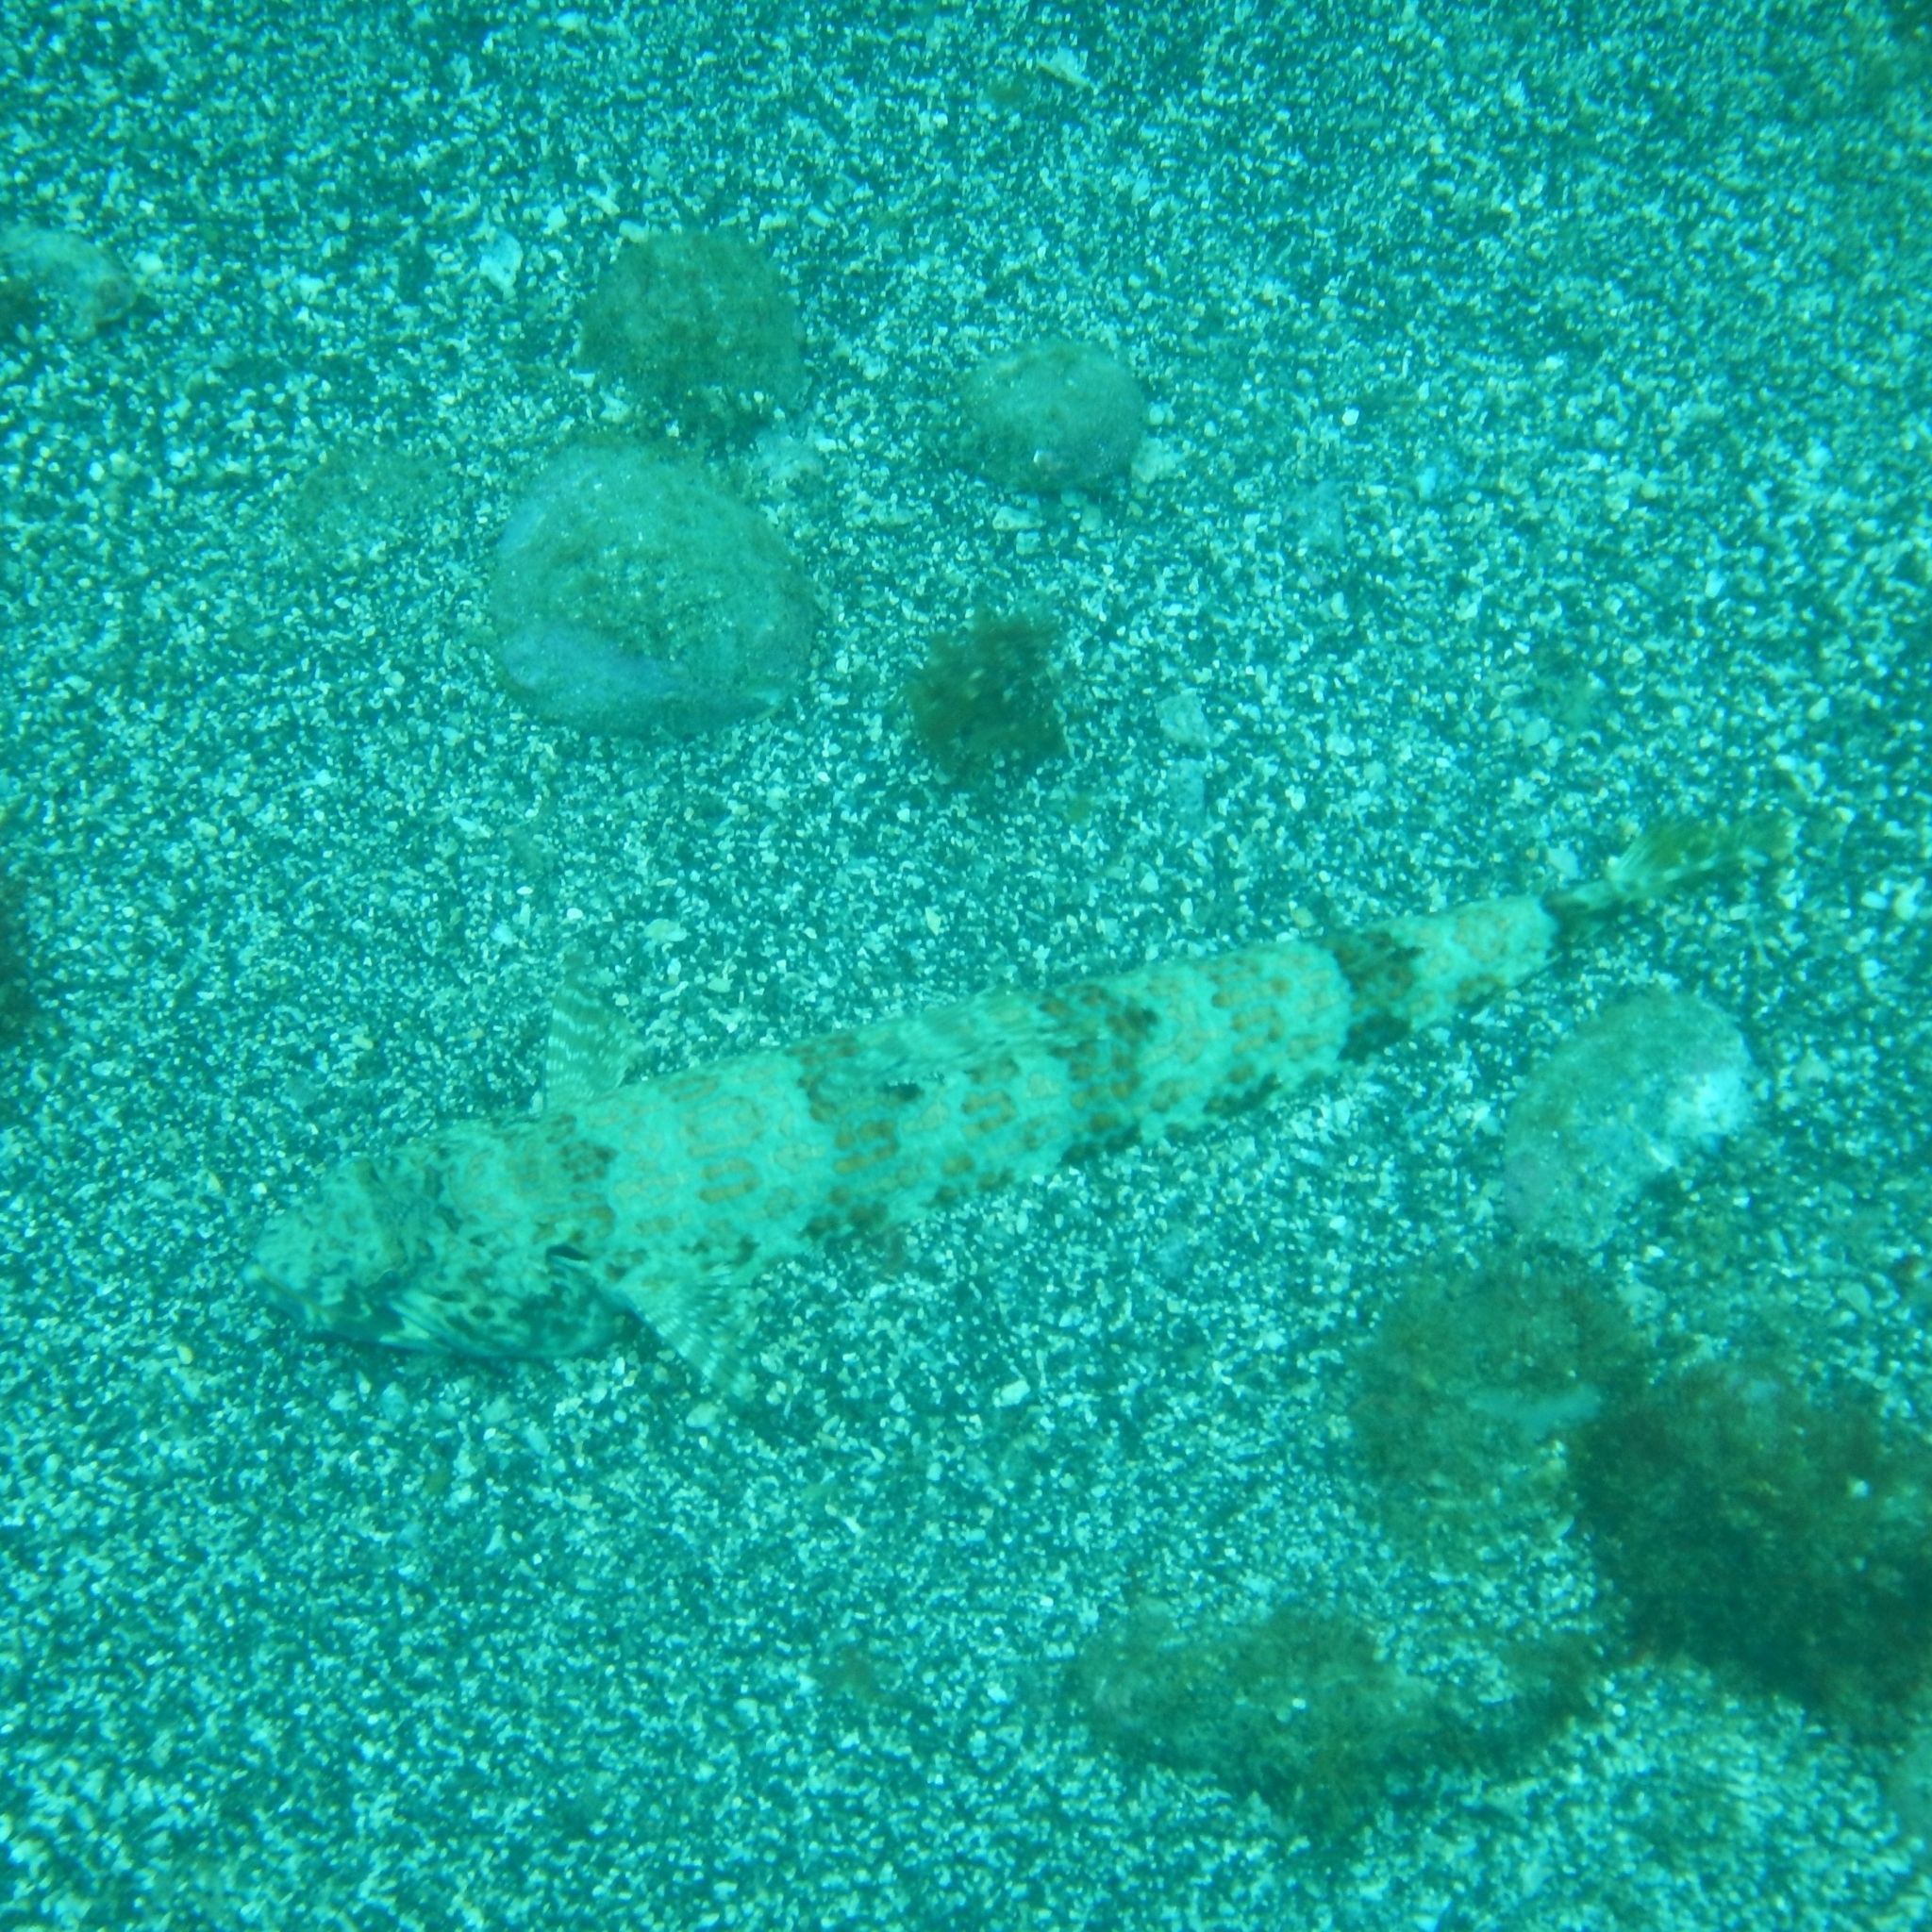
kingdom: Animalia
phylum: Chordata
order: Aulopiformes
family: Synodontidae
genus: Synodus
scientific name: Synodus intermedius
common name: Sand diver
